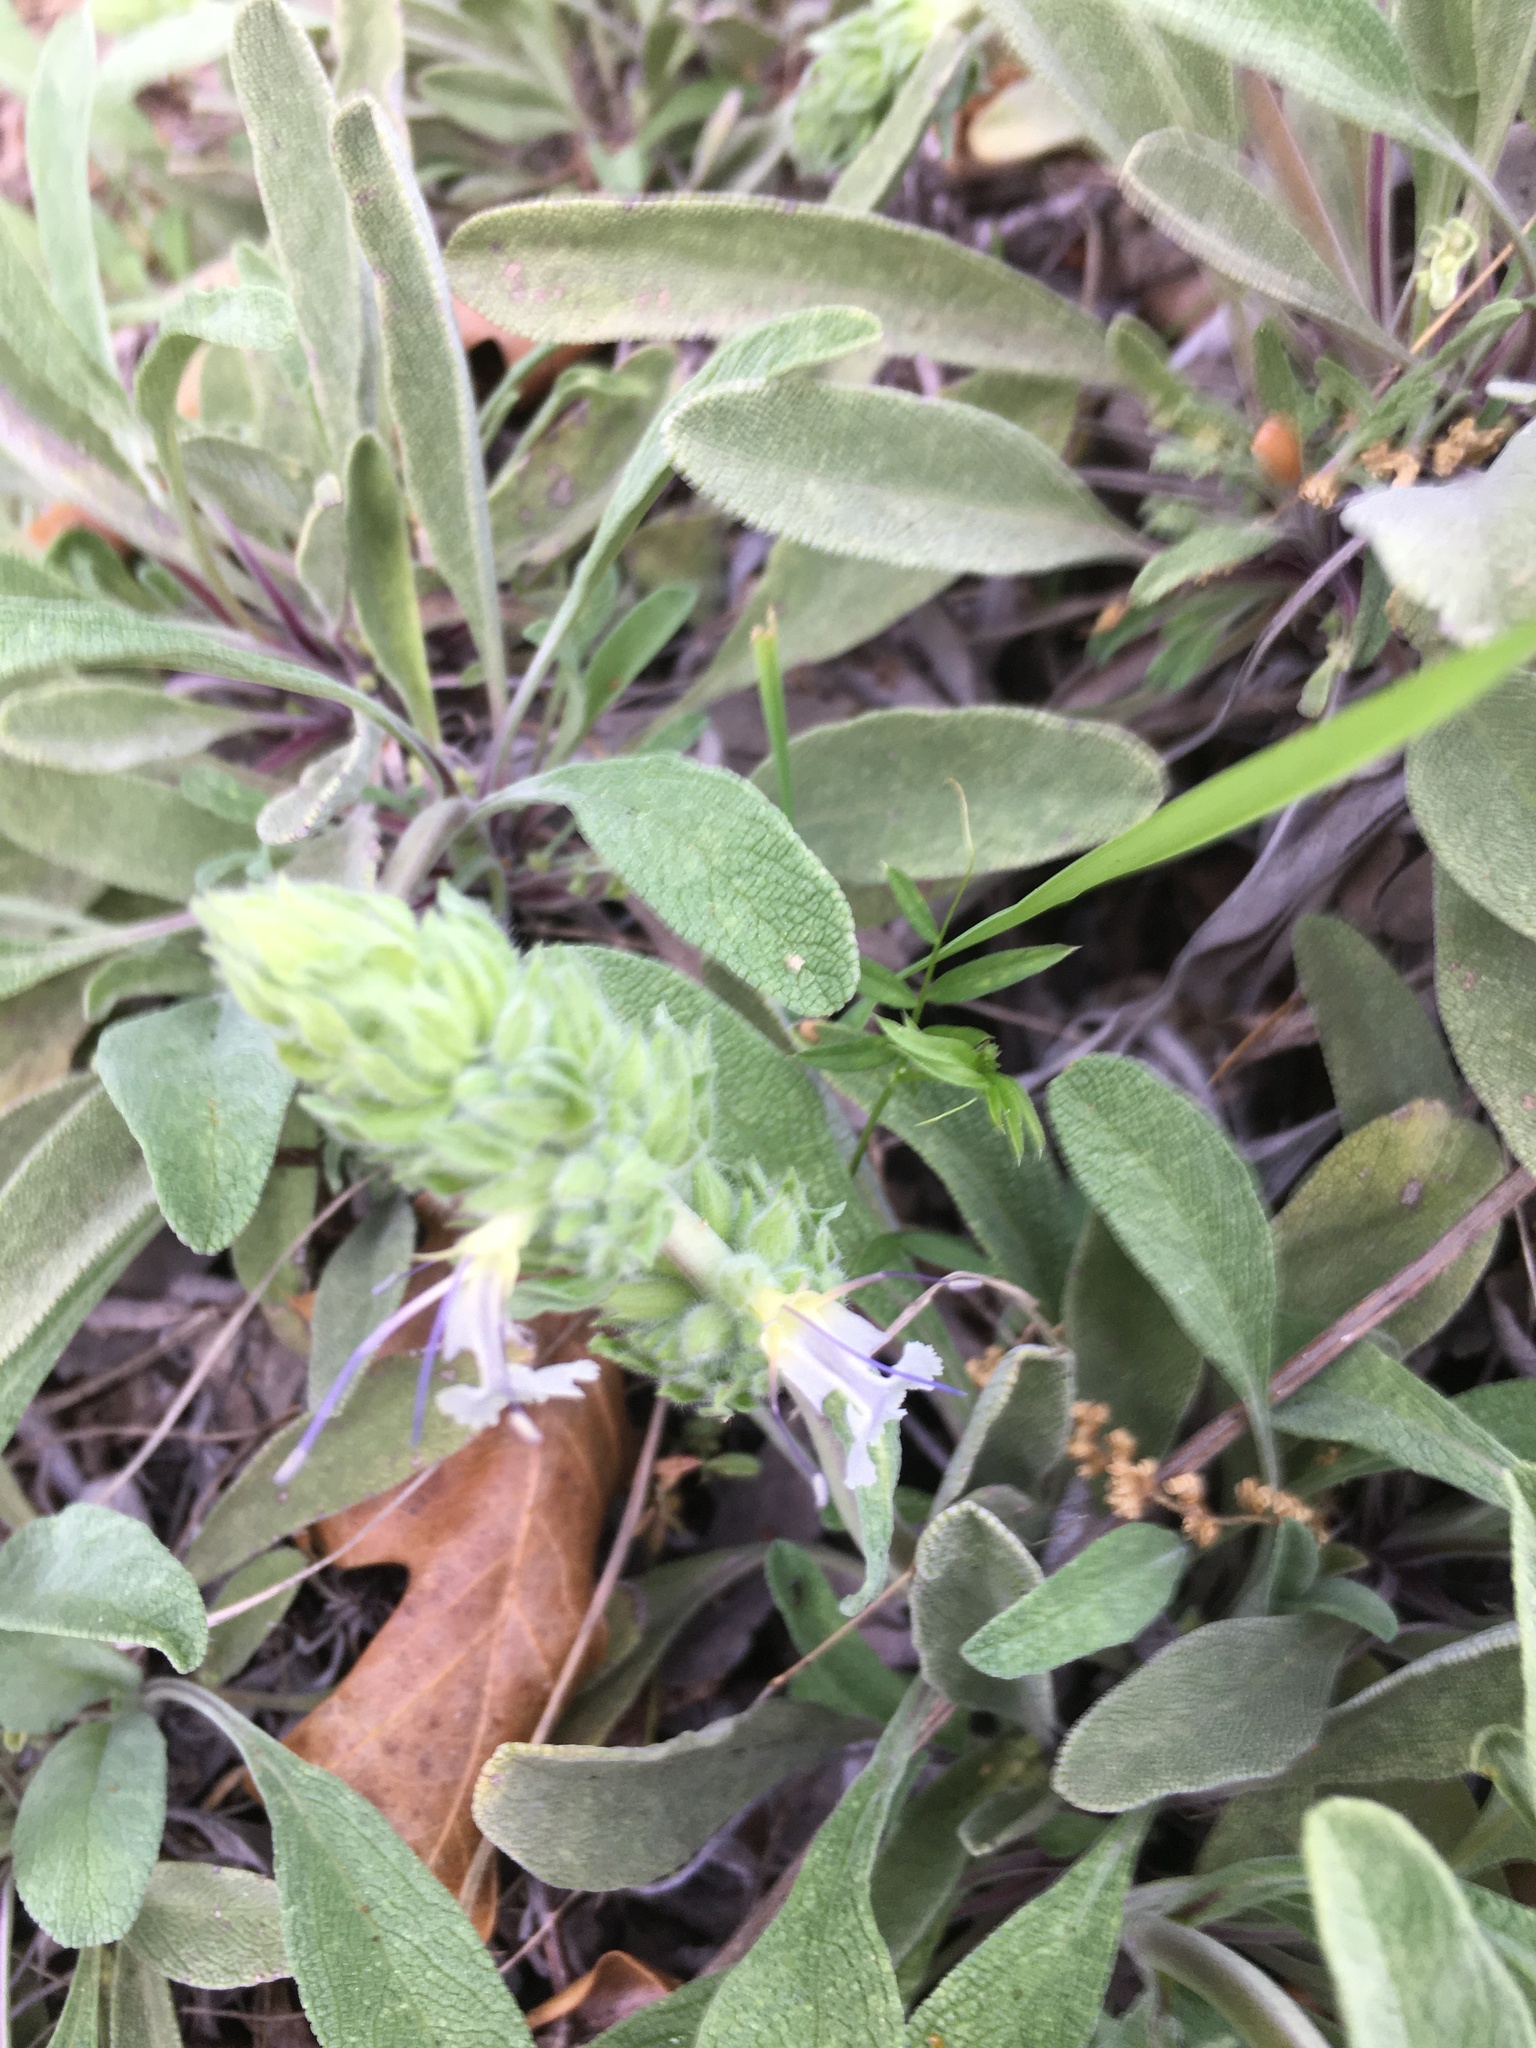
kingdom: Plantae
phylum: Tracheophyta
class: Magnoliopsida
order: Lamiales
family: Lamiaceae
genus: Salvia
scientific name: Salvia sonomensis
